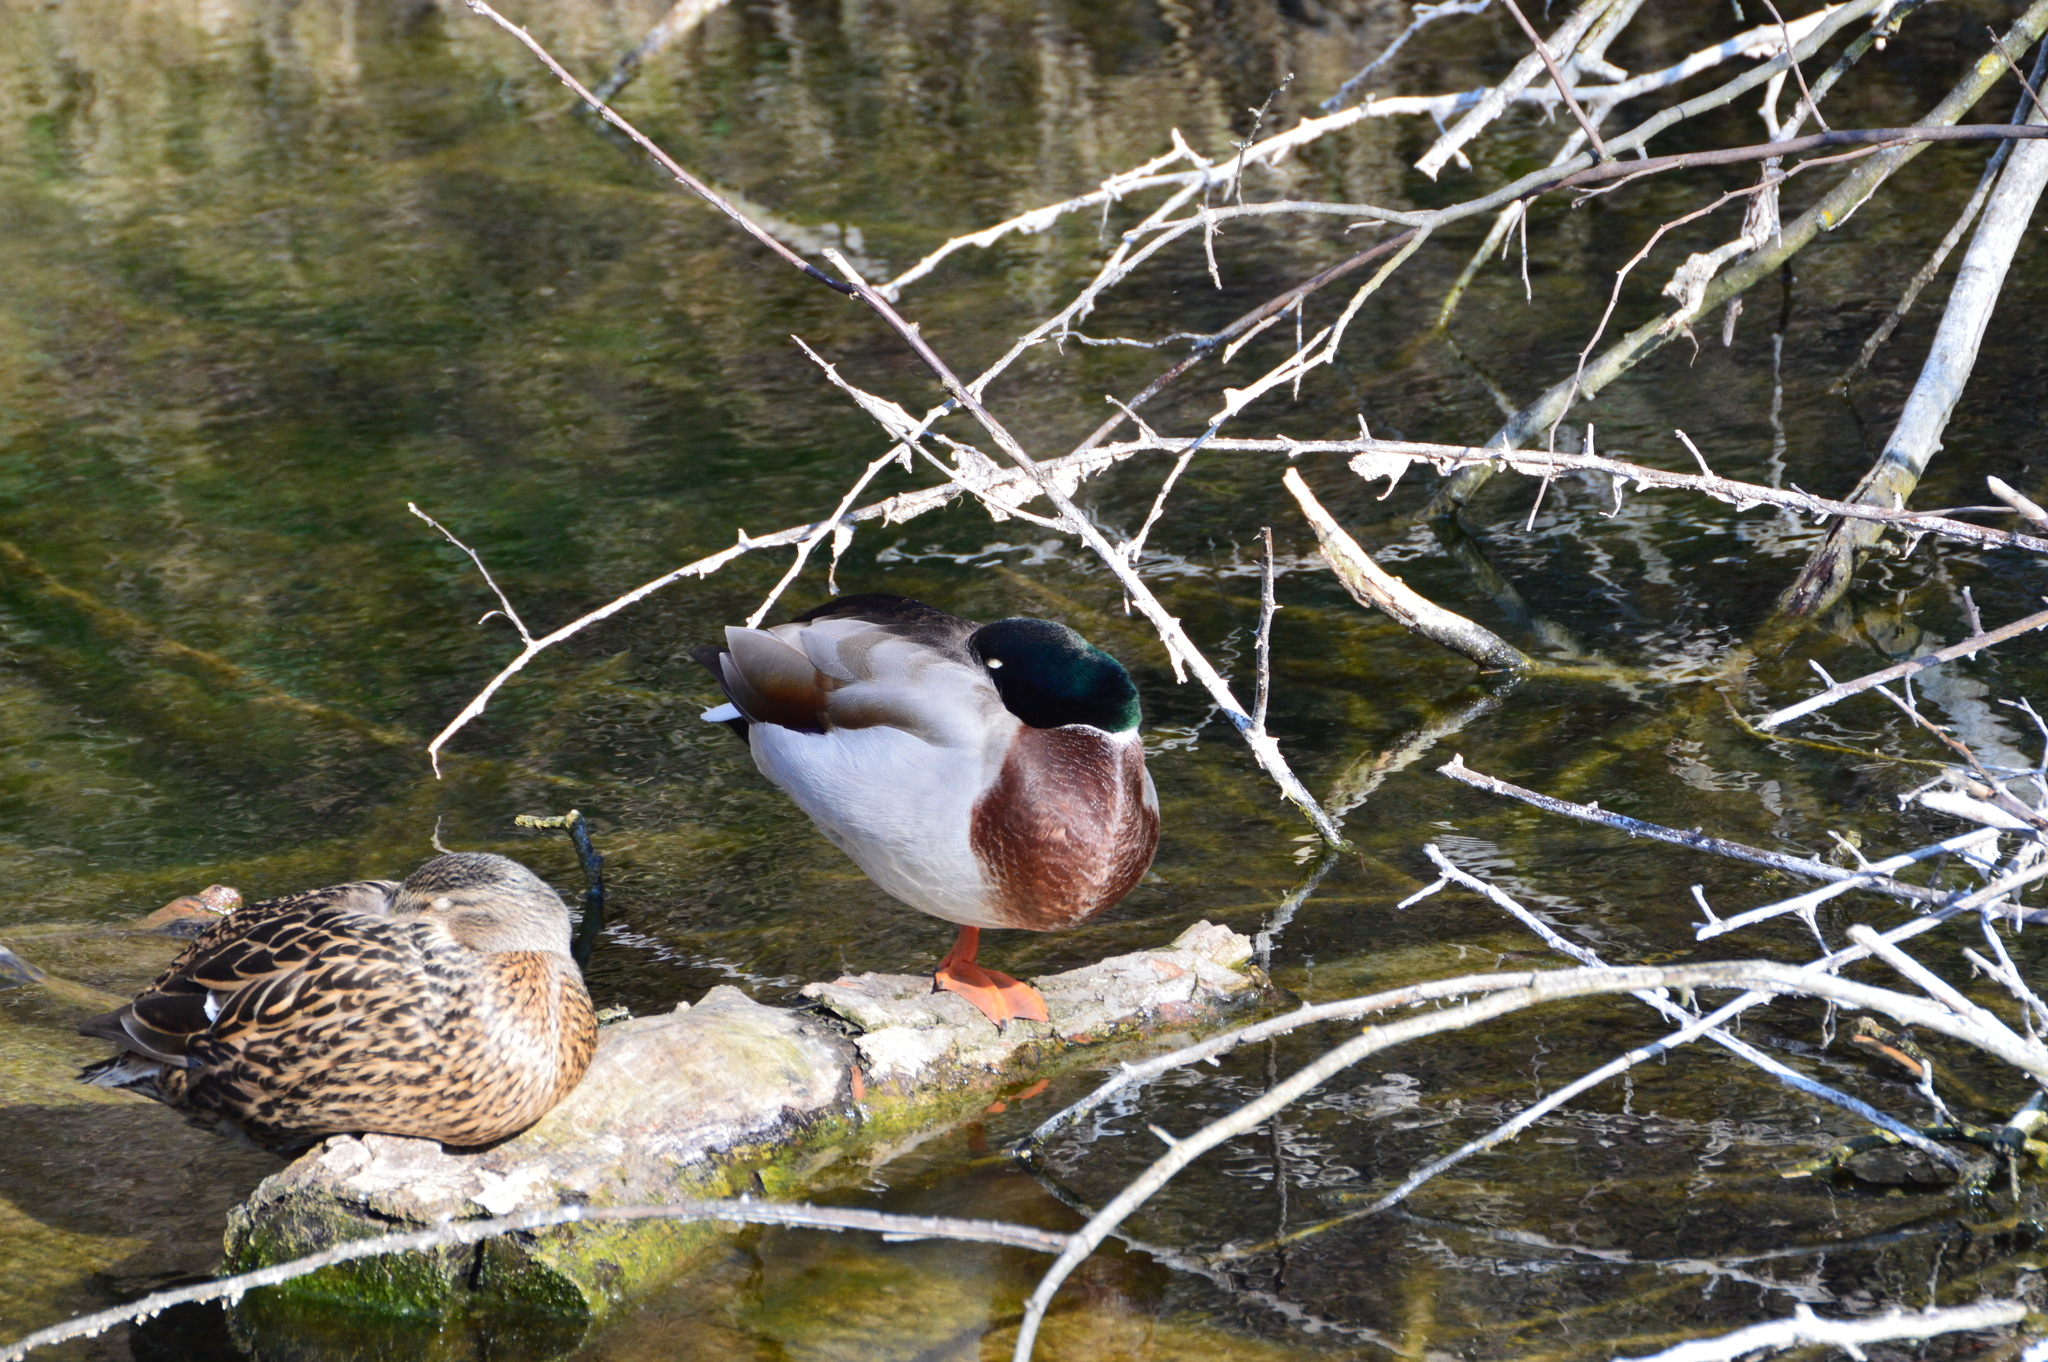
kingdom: Animalia
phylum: Chordata
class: Aves
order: Anseriformes
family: Anatidae
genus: Anas
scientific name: Anas platyrhynchos
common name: Mallard
